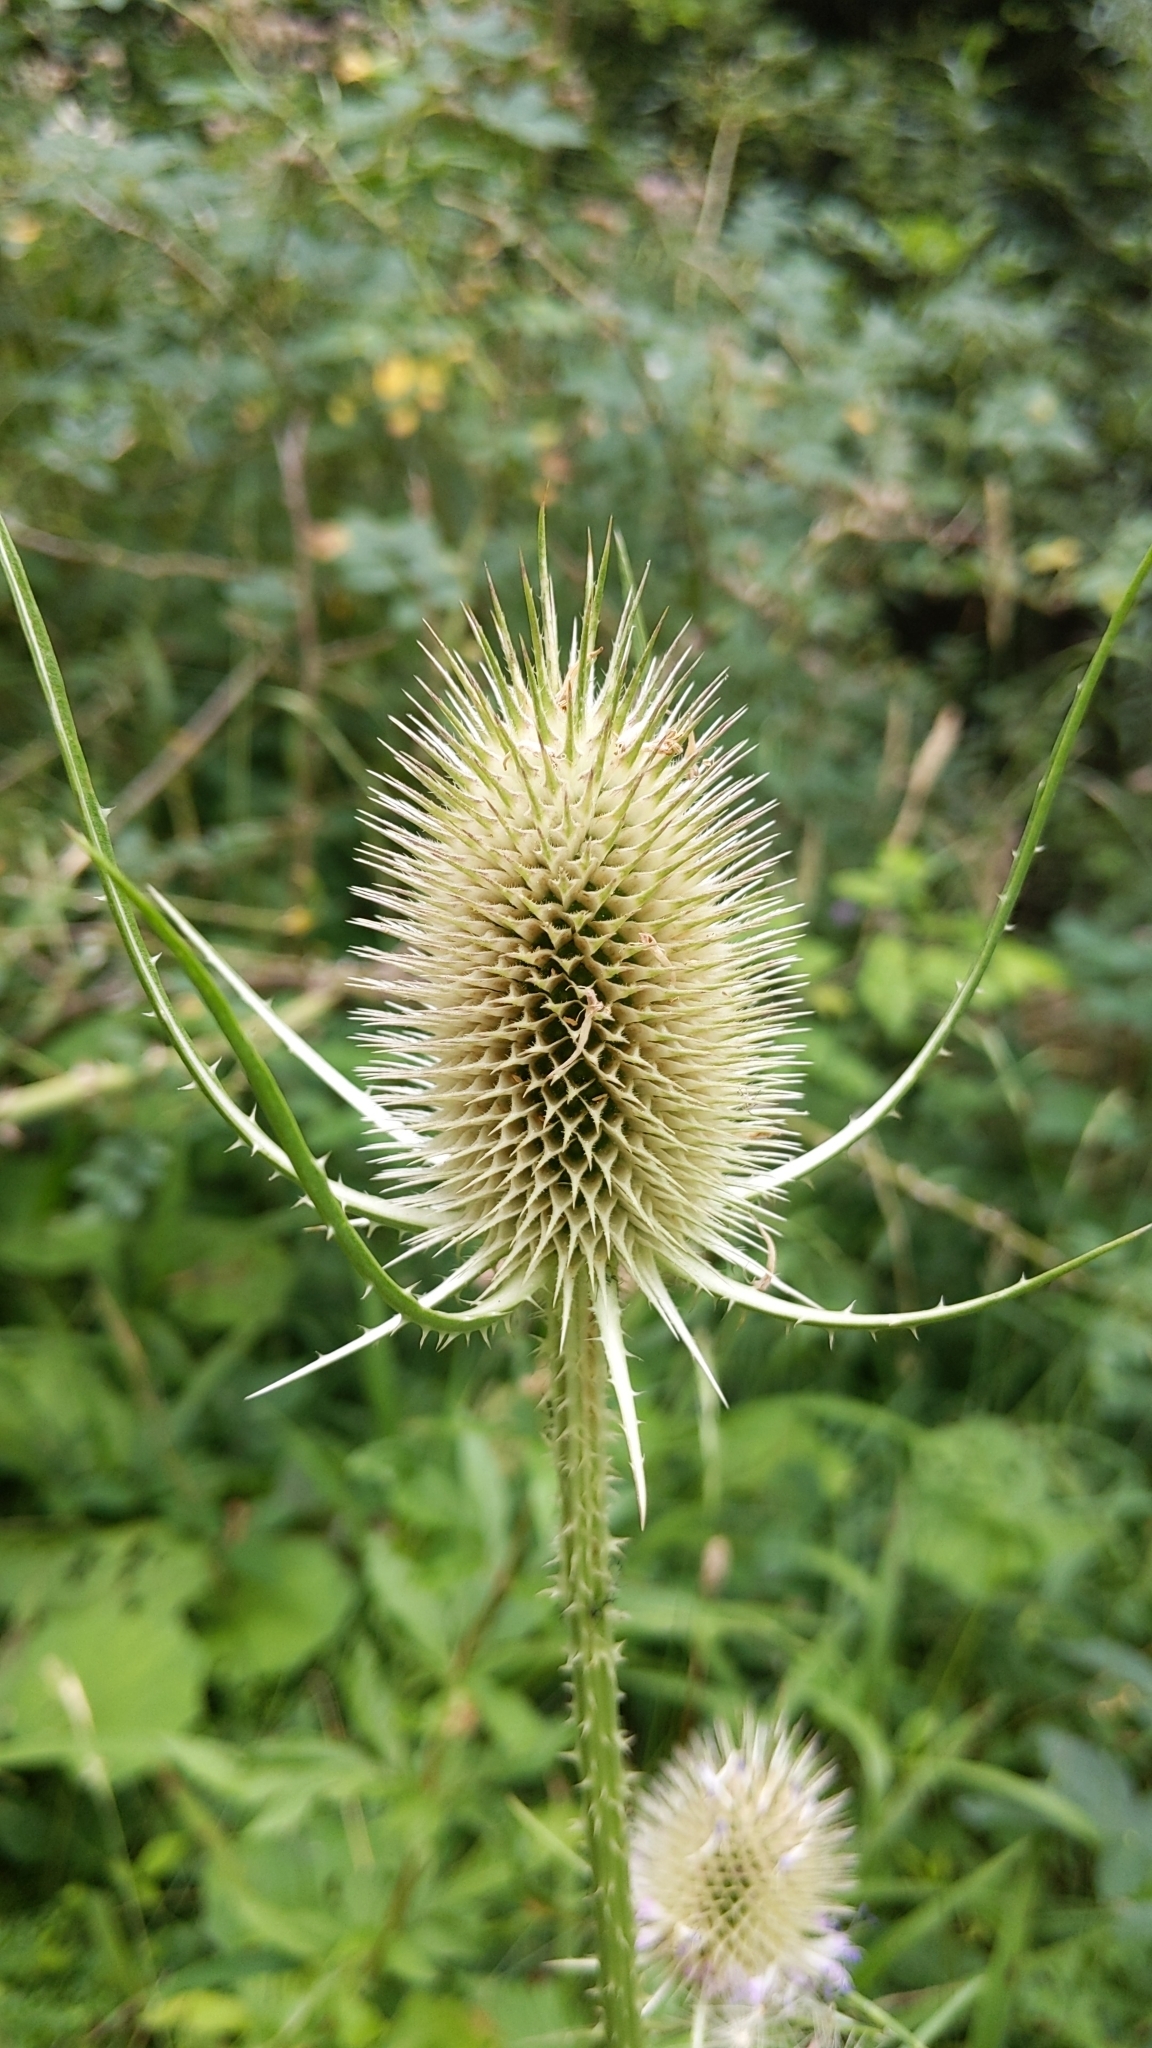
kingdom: Plantae
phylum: Tracheophyta
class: Magnoliopsida
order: Dipsacales
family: Caprifoliaceae
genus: Dipsacus
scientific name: Dipsacus fullonum
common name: Teasel
